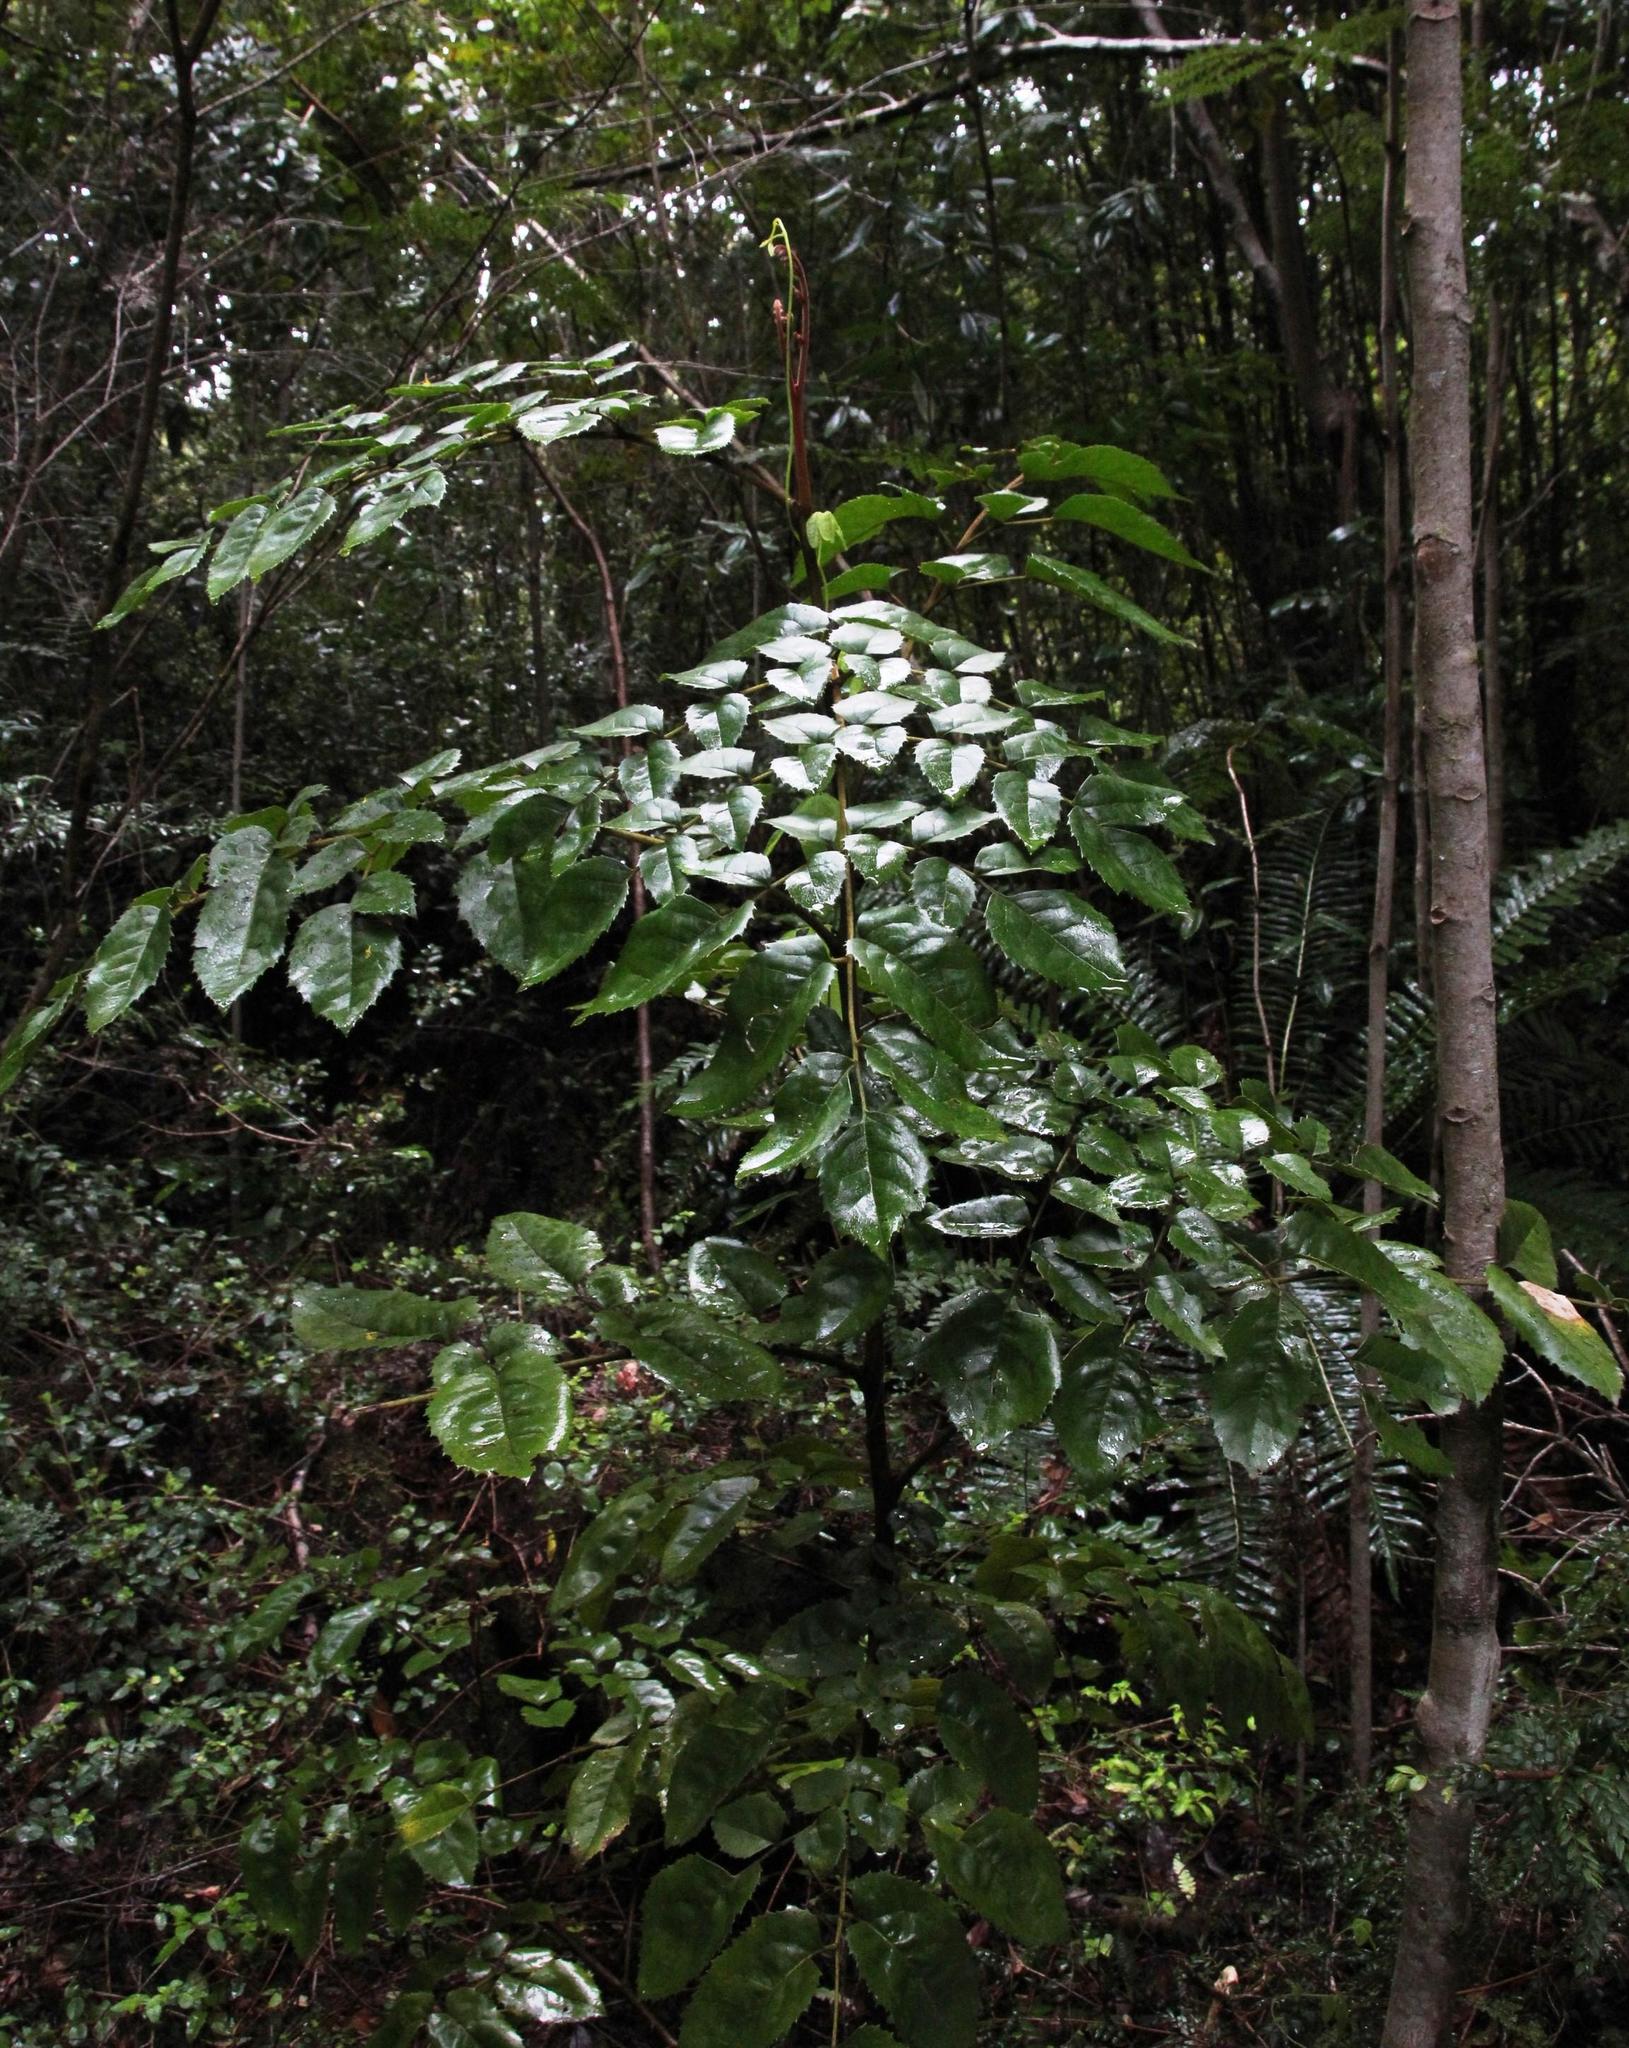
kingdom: Plantae
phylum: Tracheophyta
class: Magnoliopsida
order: Proteales
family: Proteaceae
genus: Gevuina
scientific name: Gevuina avellana
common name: Chilean hazel
